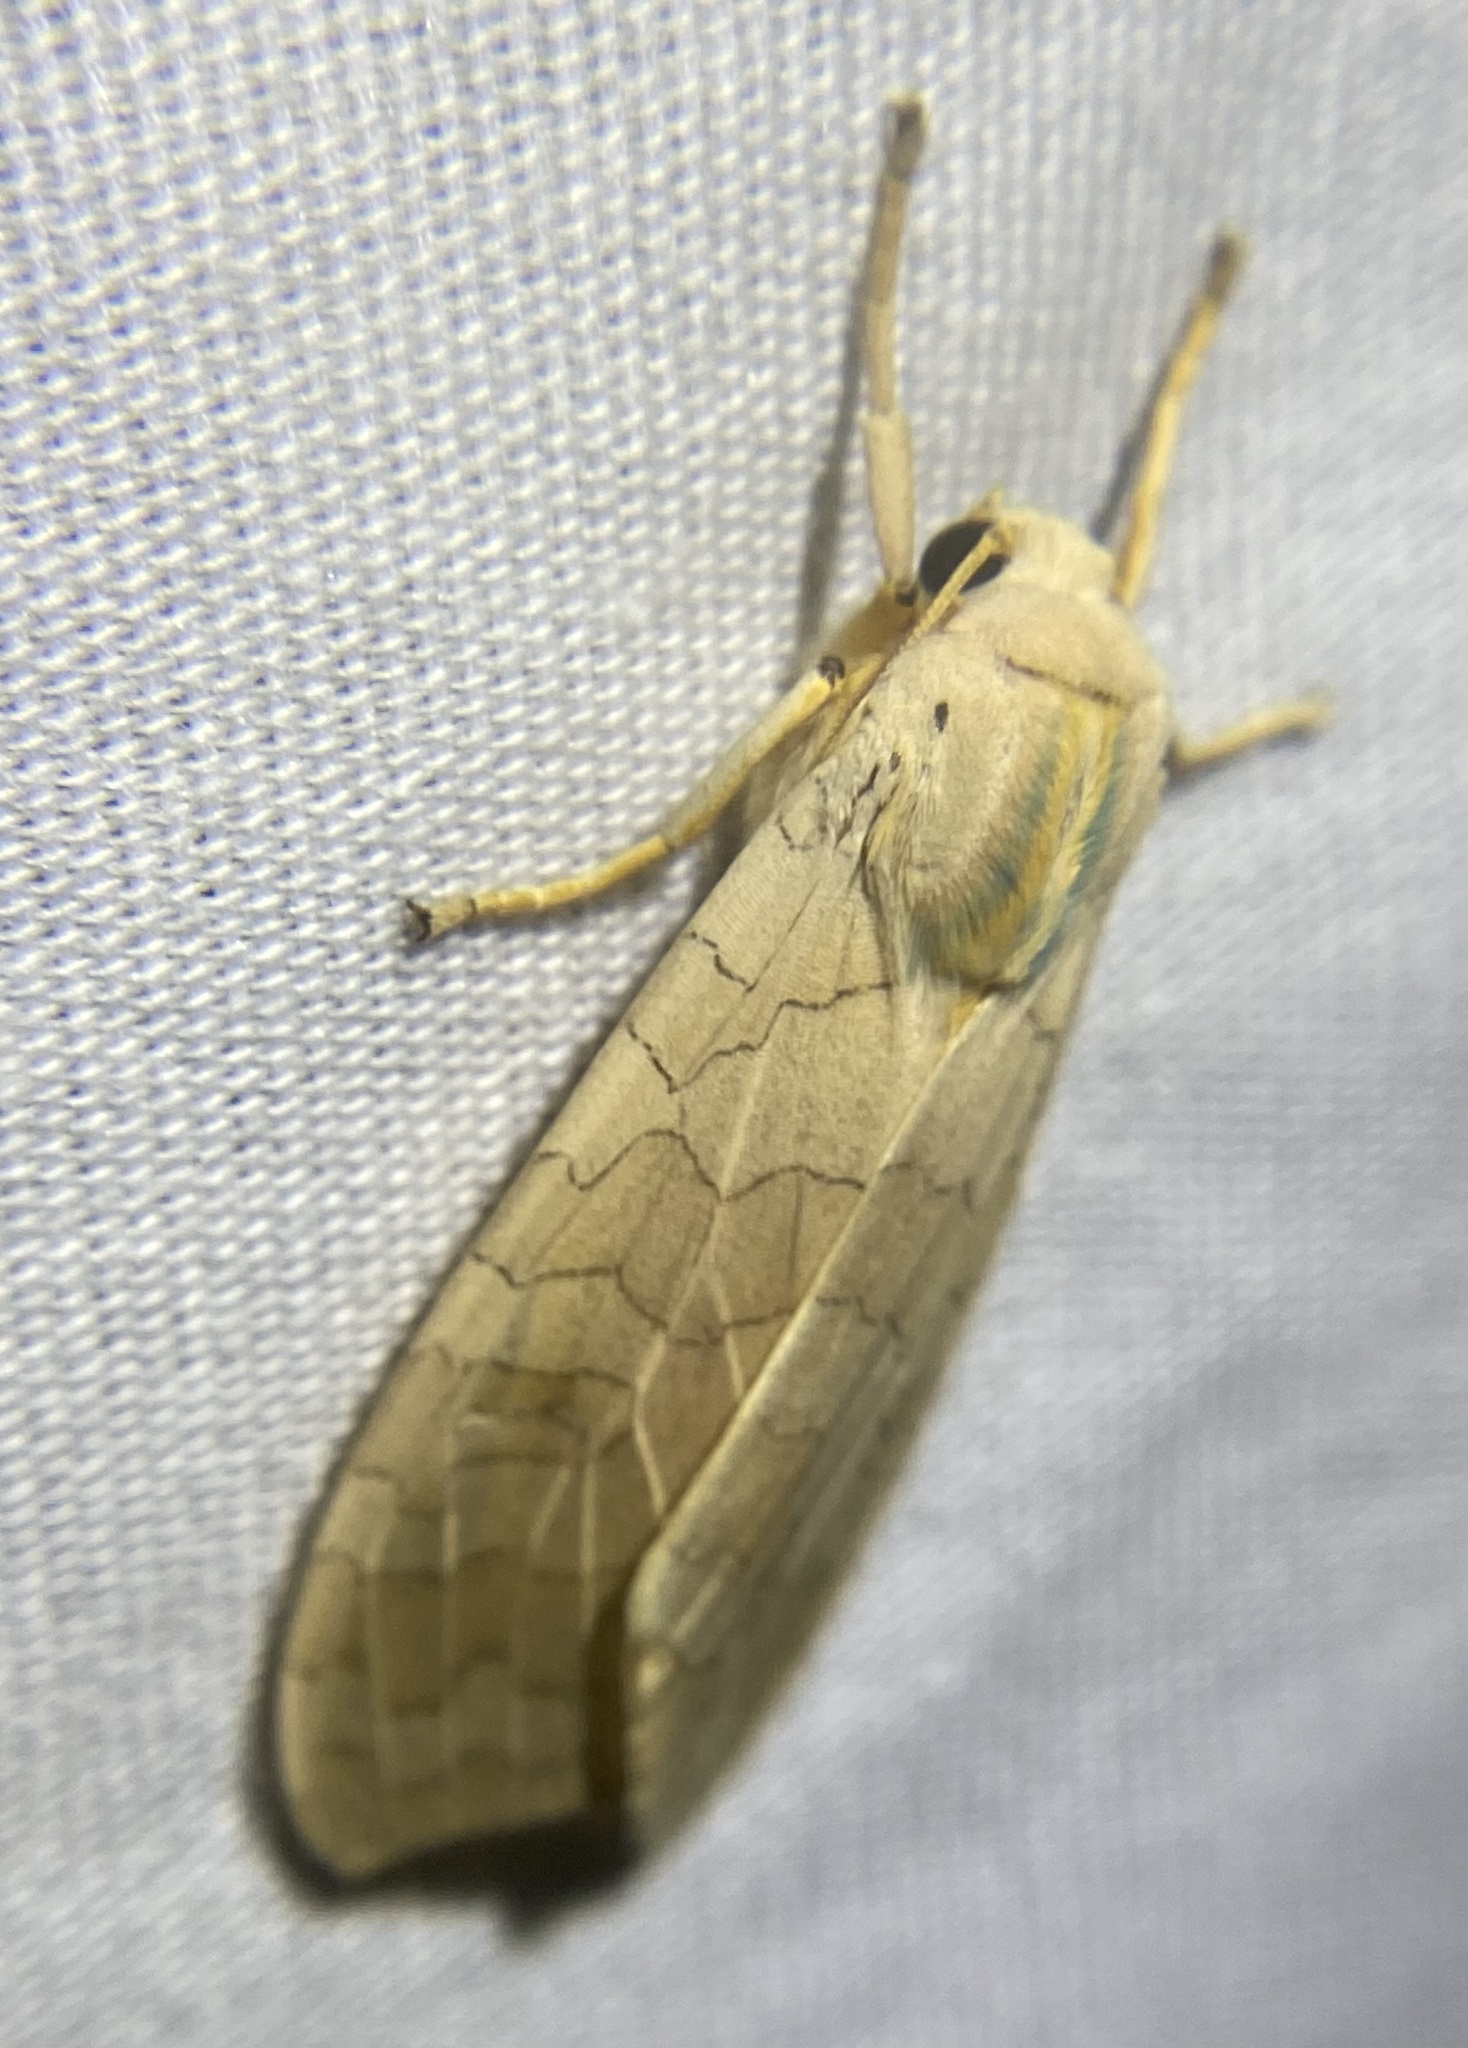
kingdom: Animalia
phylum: Arthropoda
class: Insecta
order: Lepidoptera
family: Erebidae
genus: Halysidota
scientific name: Halysidota
